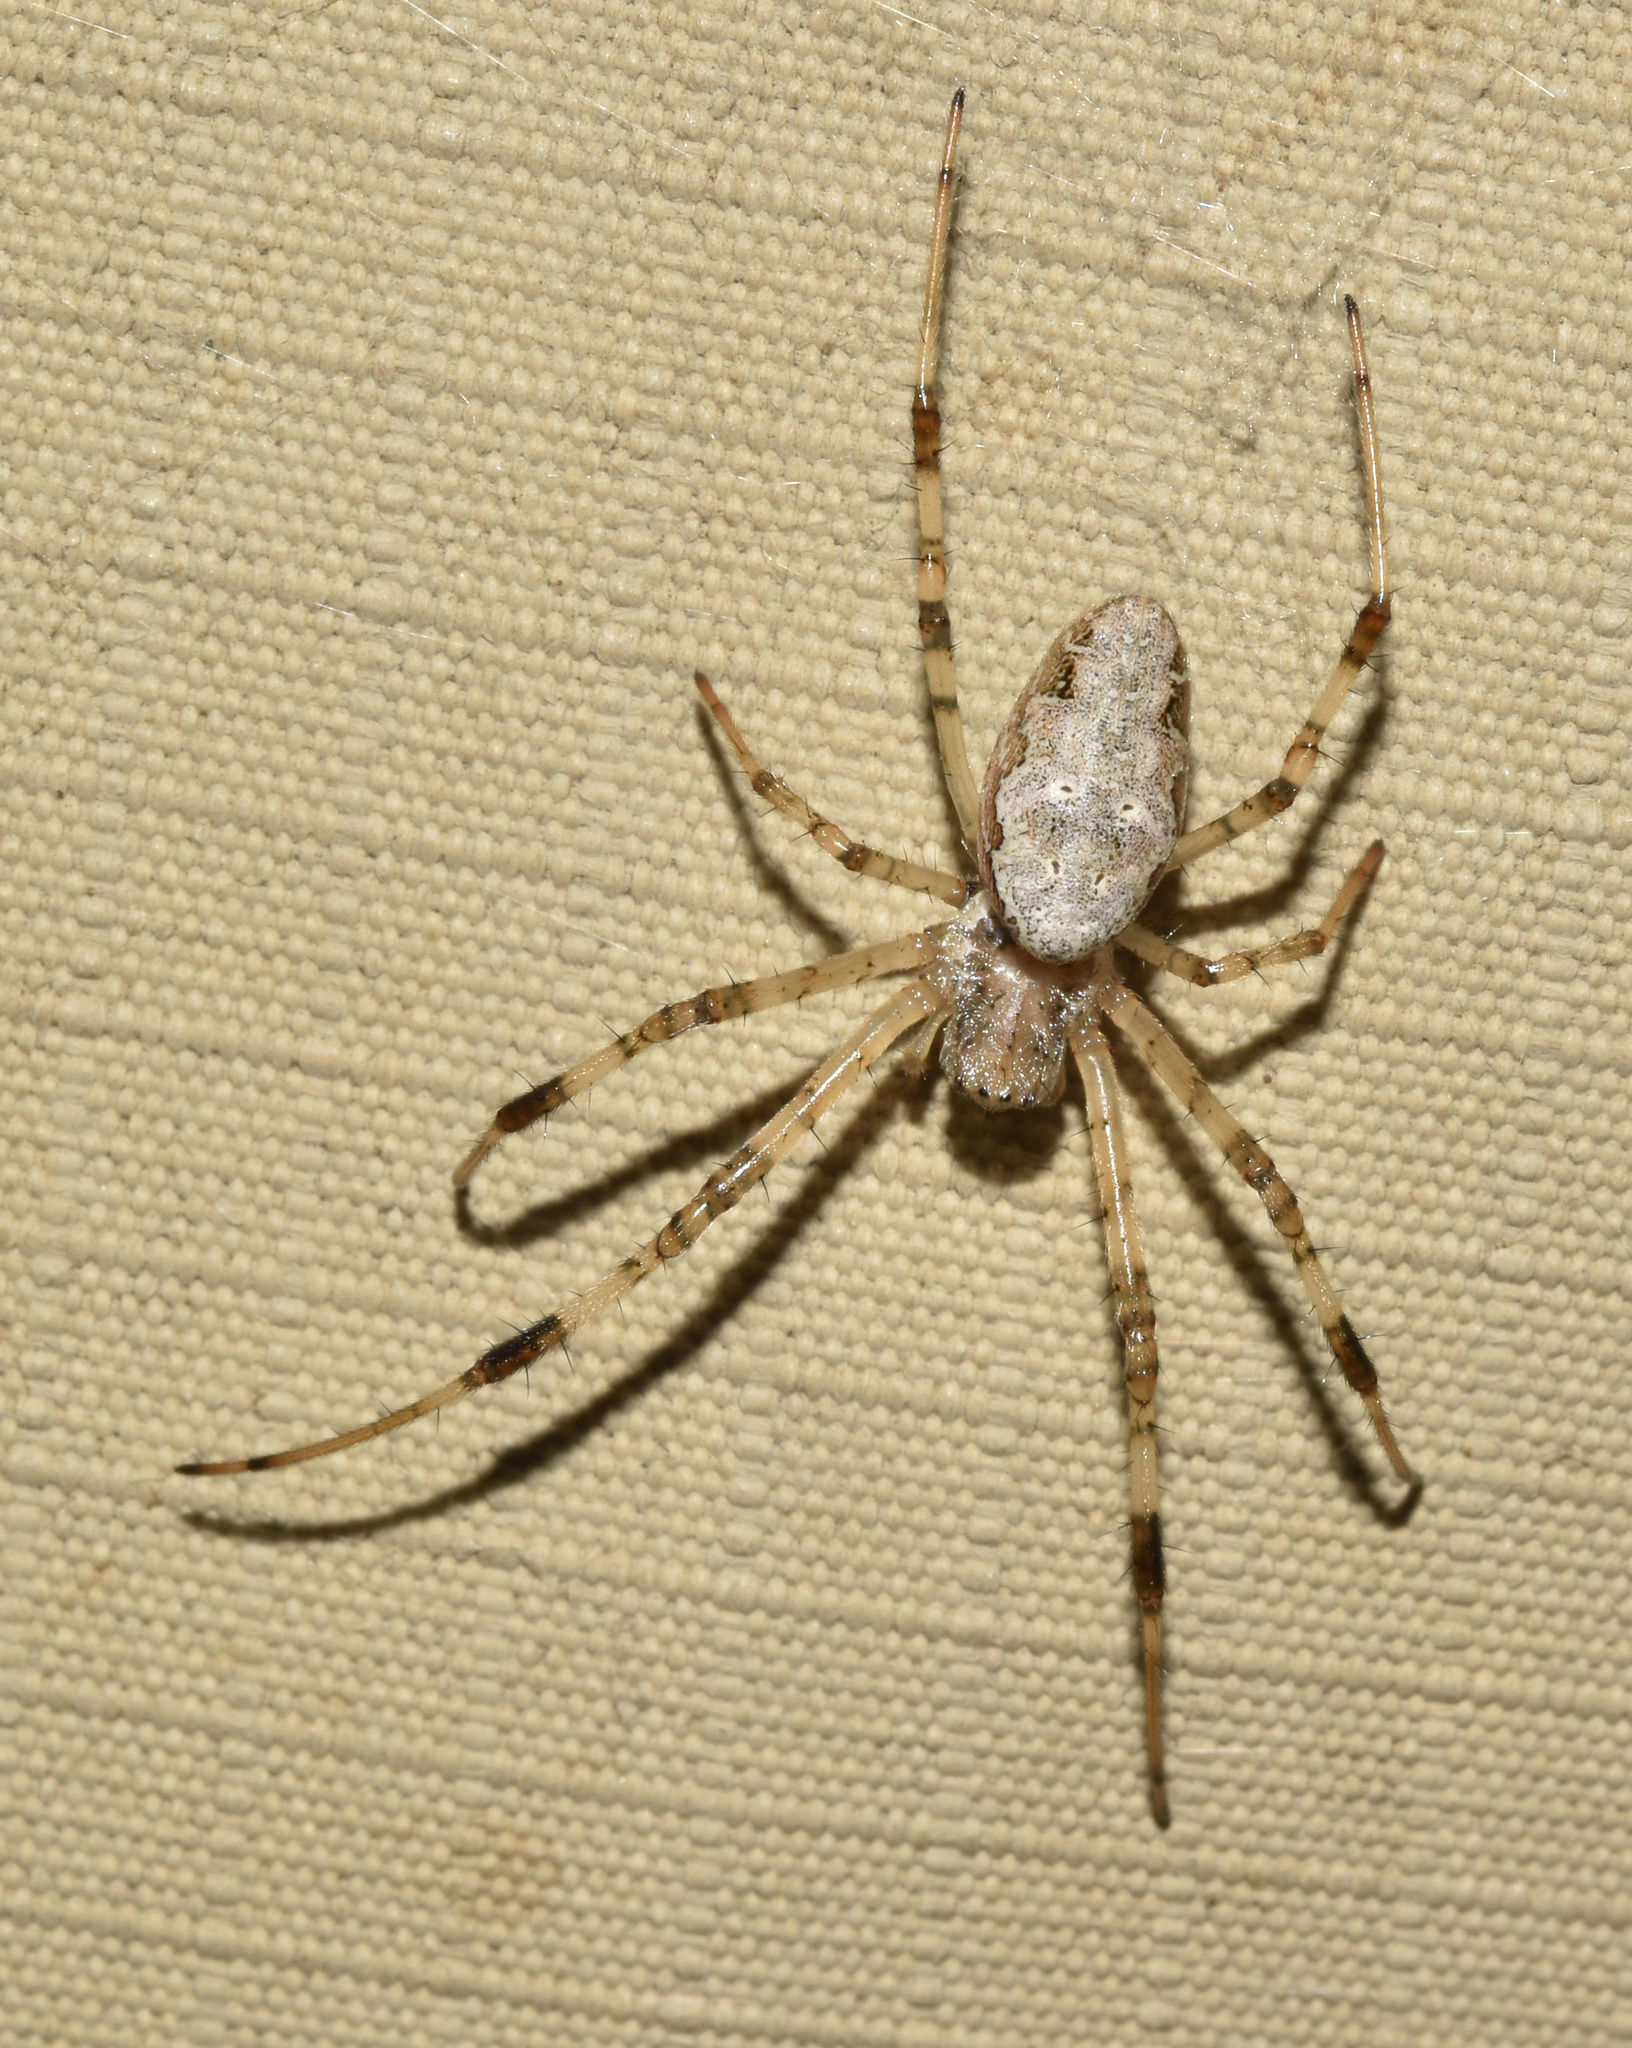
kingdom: Animalia
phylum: Arthropoda
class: Arachnida
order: Araneae
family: Araneidae
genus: Nephilingis
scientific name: Nephilingis cruentata
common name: African hermit spider
